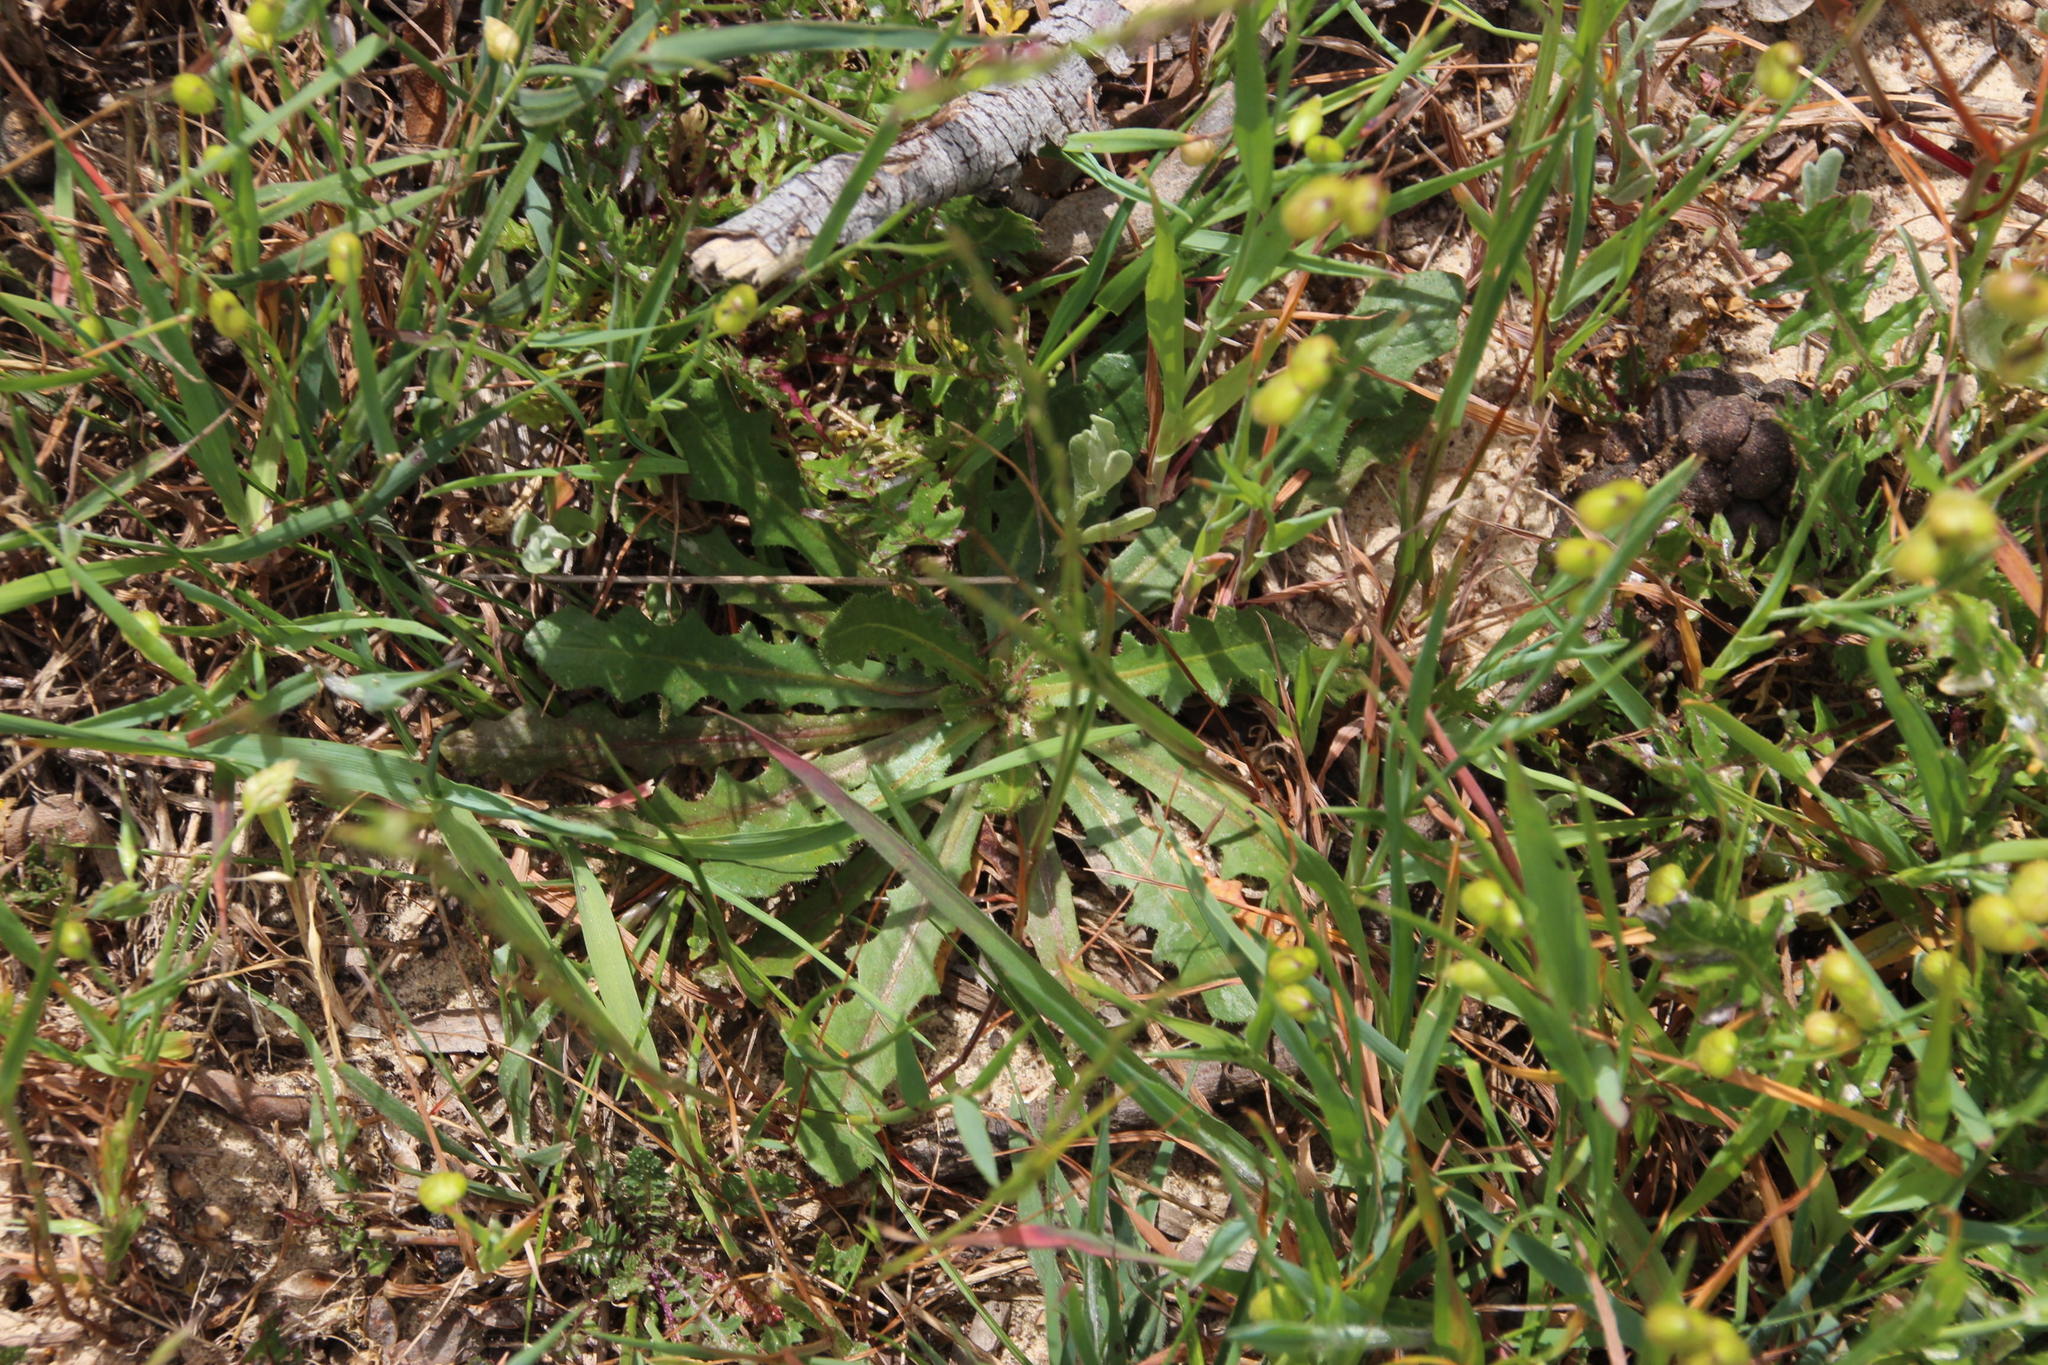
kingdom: Plantae
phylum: Tracheophyta
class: Magnoliopsida
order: Asterales
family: Asteraceae
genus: Hypochaeris
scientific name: Hypochaeris radicata
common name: Flatweed
